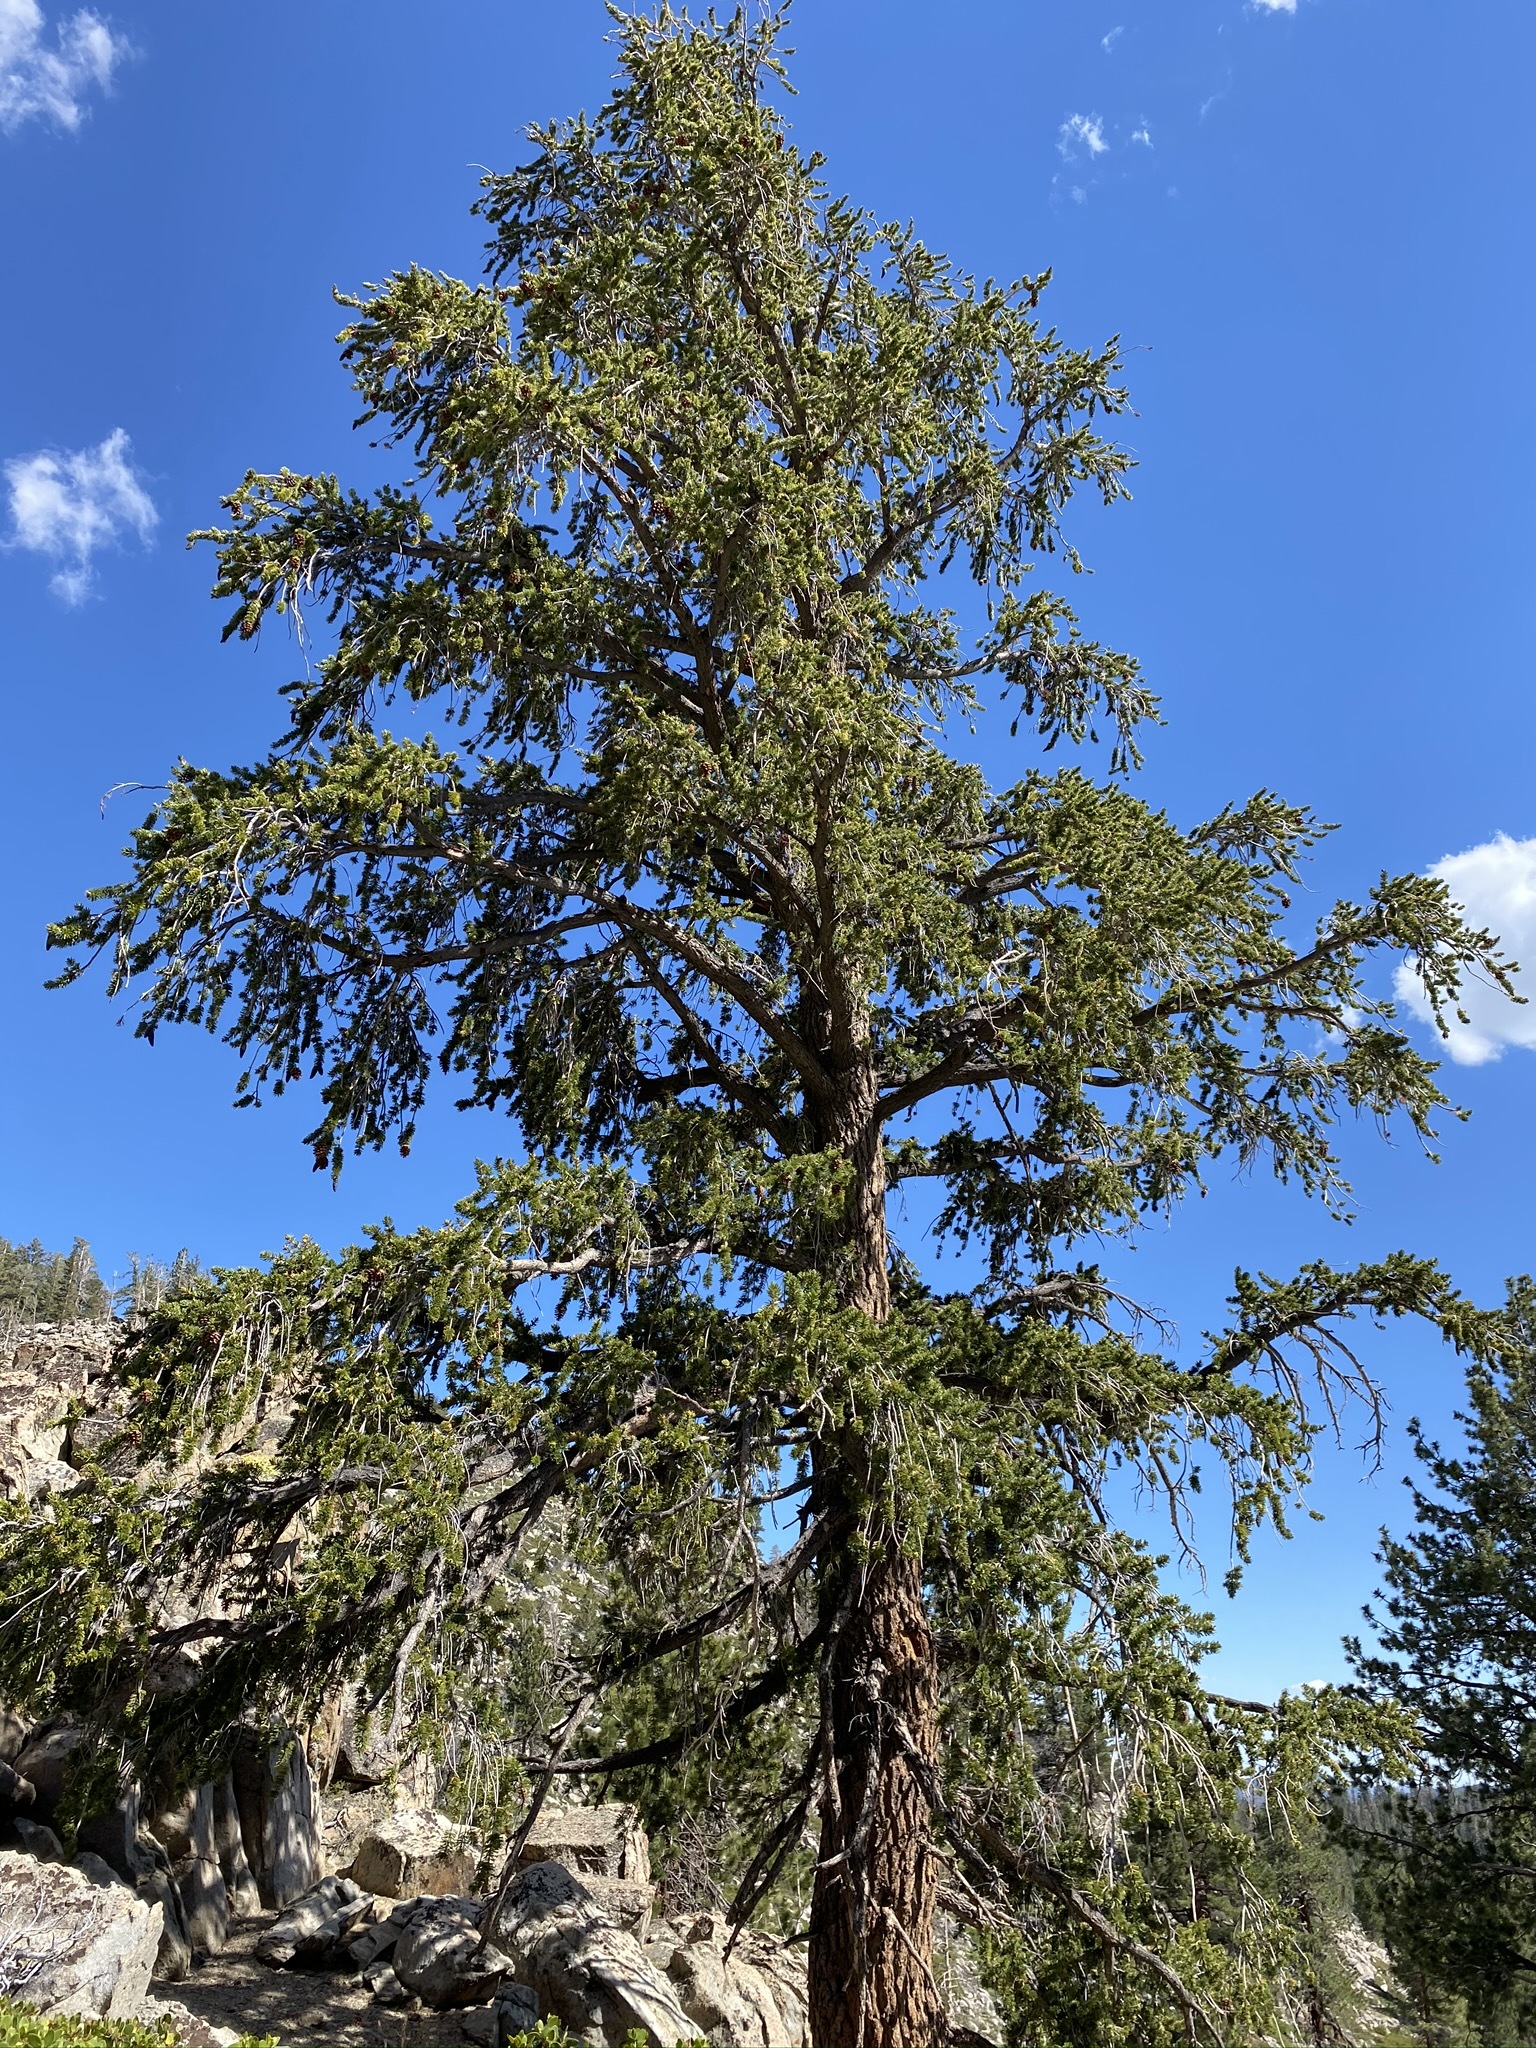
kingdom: Plantae
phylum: Tracheophyta
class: Pinopsida
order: Pinales
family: Pinaceae
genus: Pinus
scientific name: Pinus balfouriana
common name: Foxtail pine
